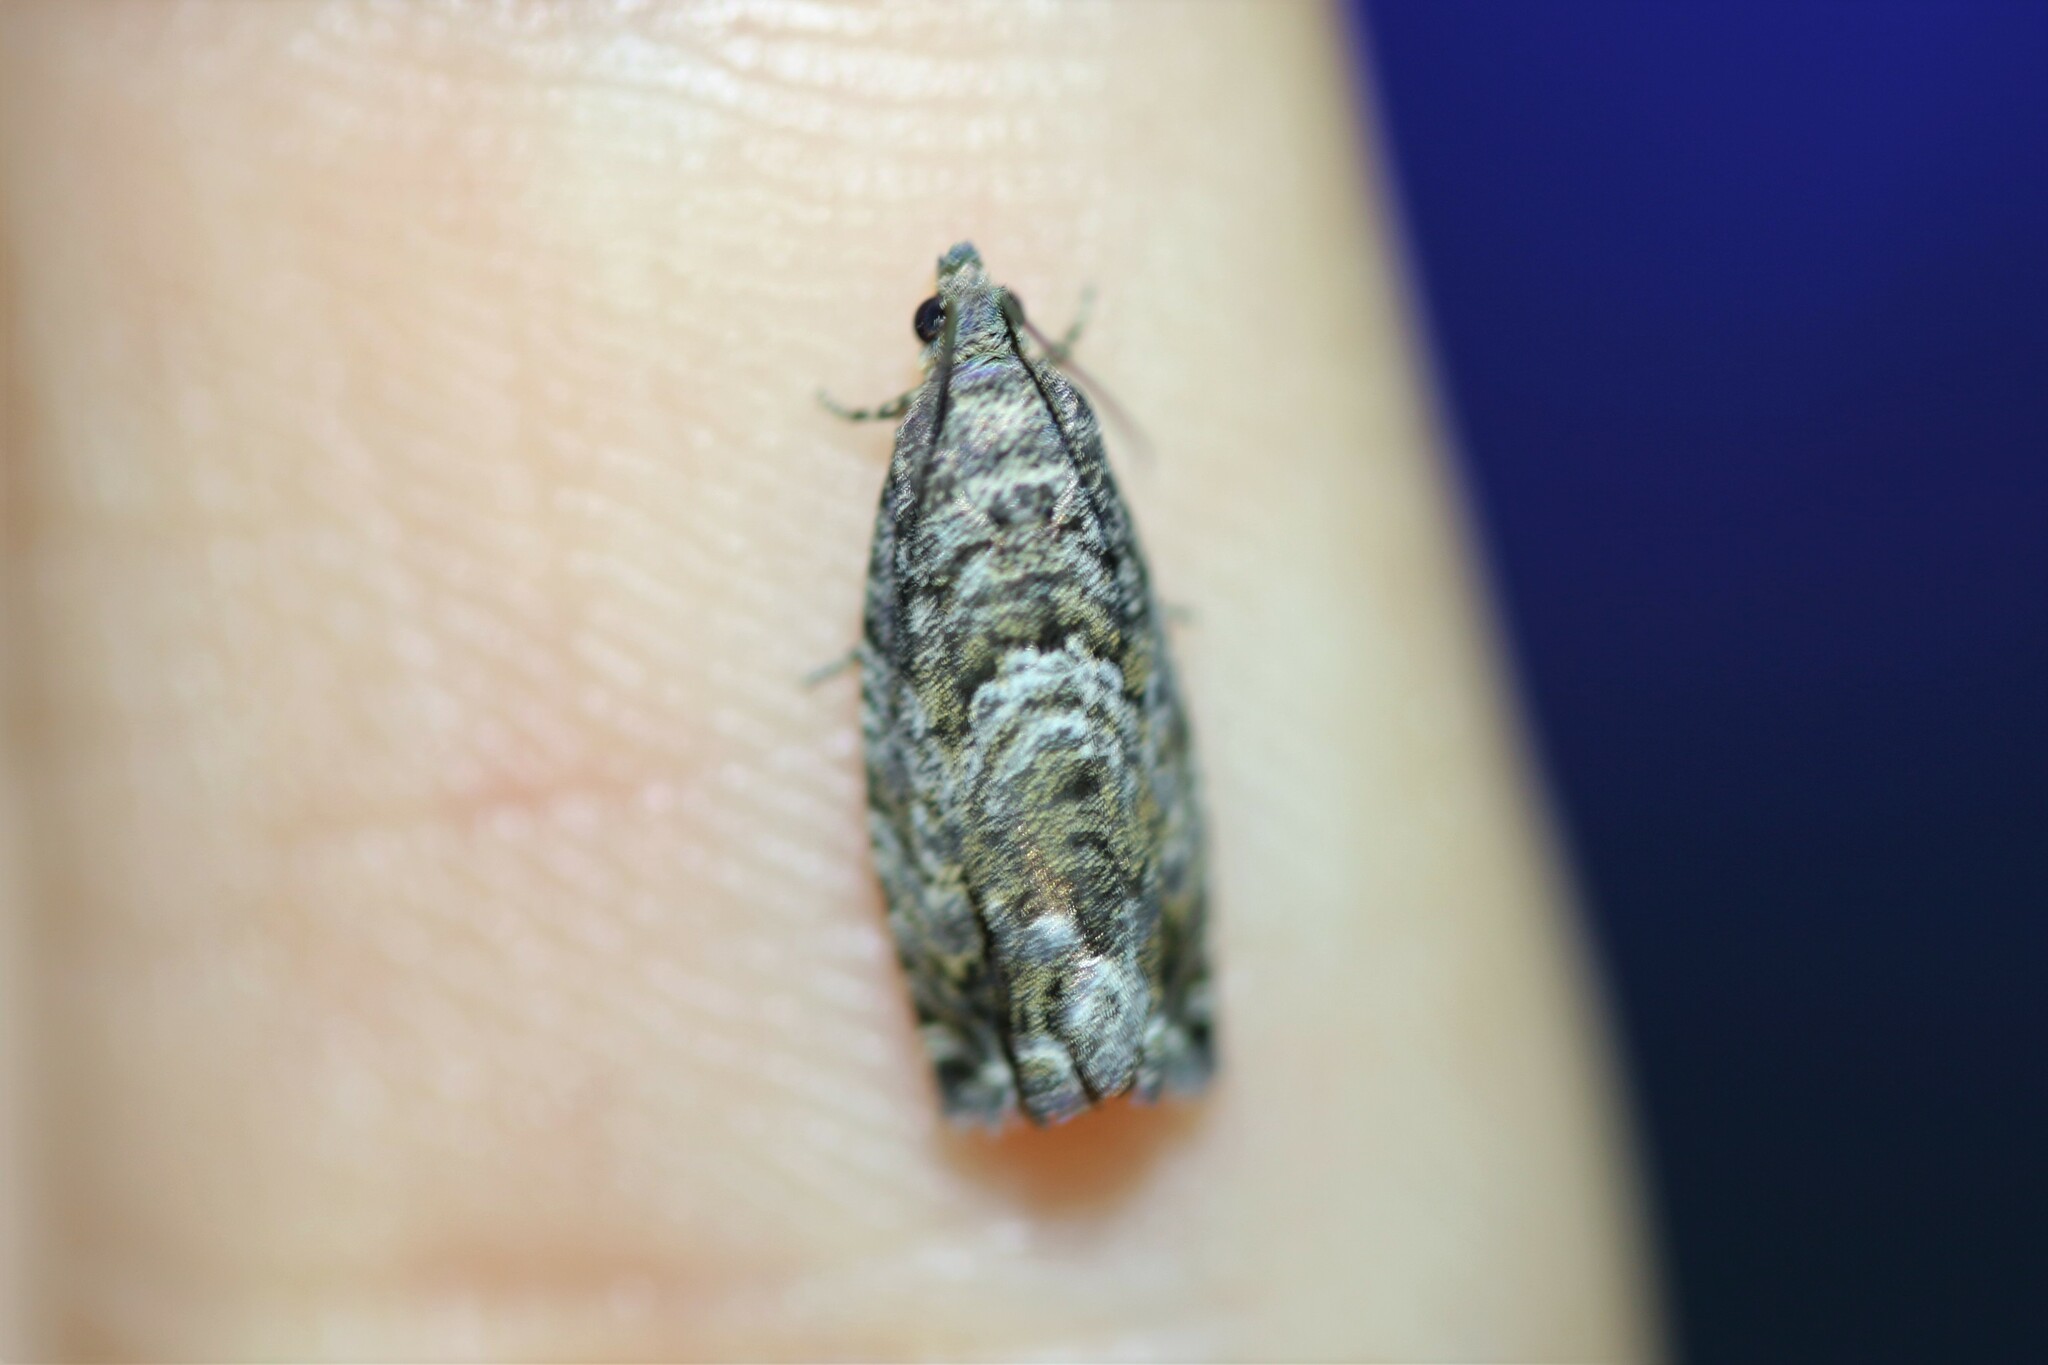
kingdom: Animalia
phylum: Arthropoda
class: Insecta
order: Lepidoptera
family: Tortricidae
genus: Cydia
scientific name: Cydia fagiglandana
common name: Large beech piercer
